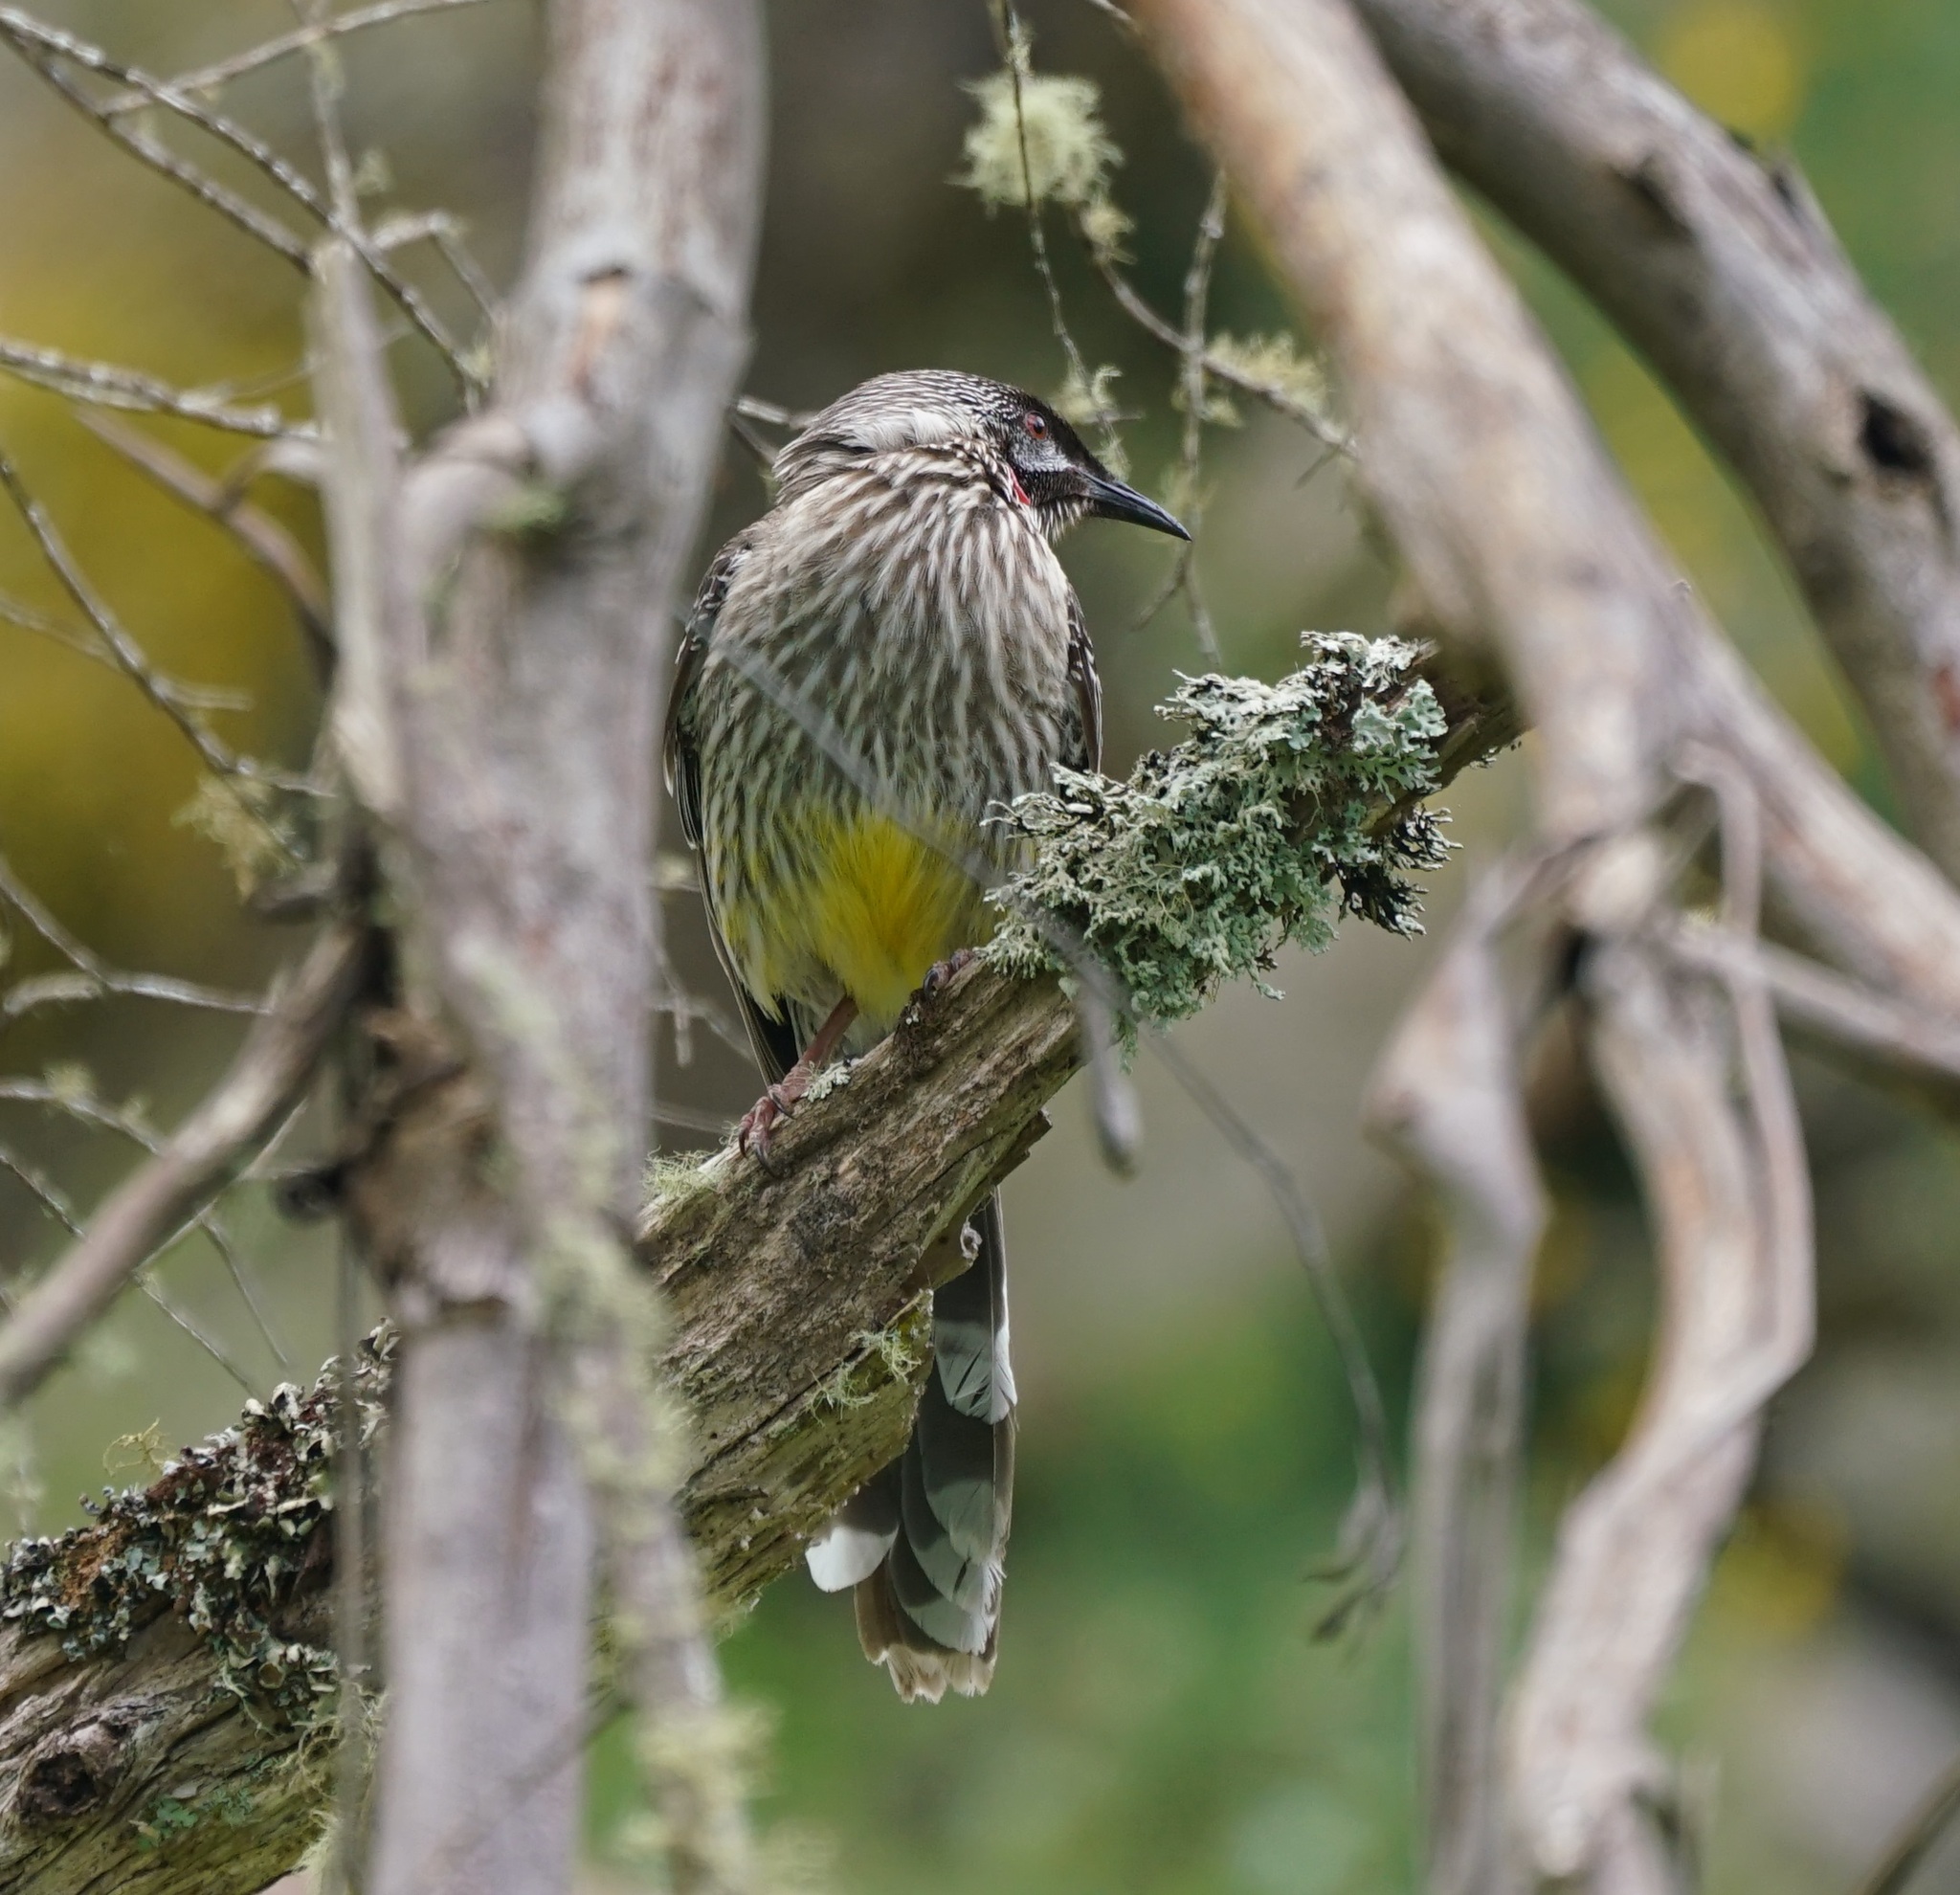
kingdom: Animalia
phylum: Chordata
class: Aves
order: Passeriformes
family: Meliphagidae
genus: Anthochaera
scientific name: Anthochaera carunculata
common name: Red wattlebird
